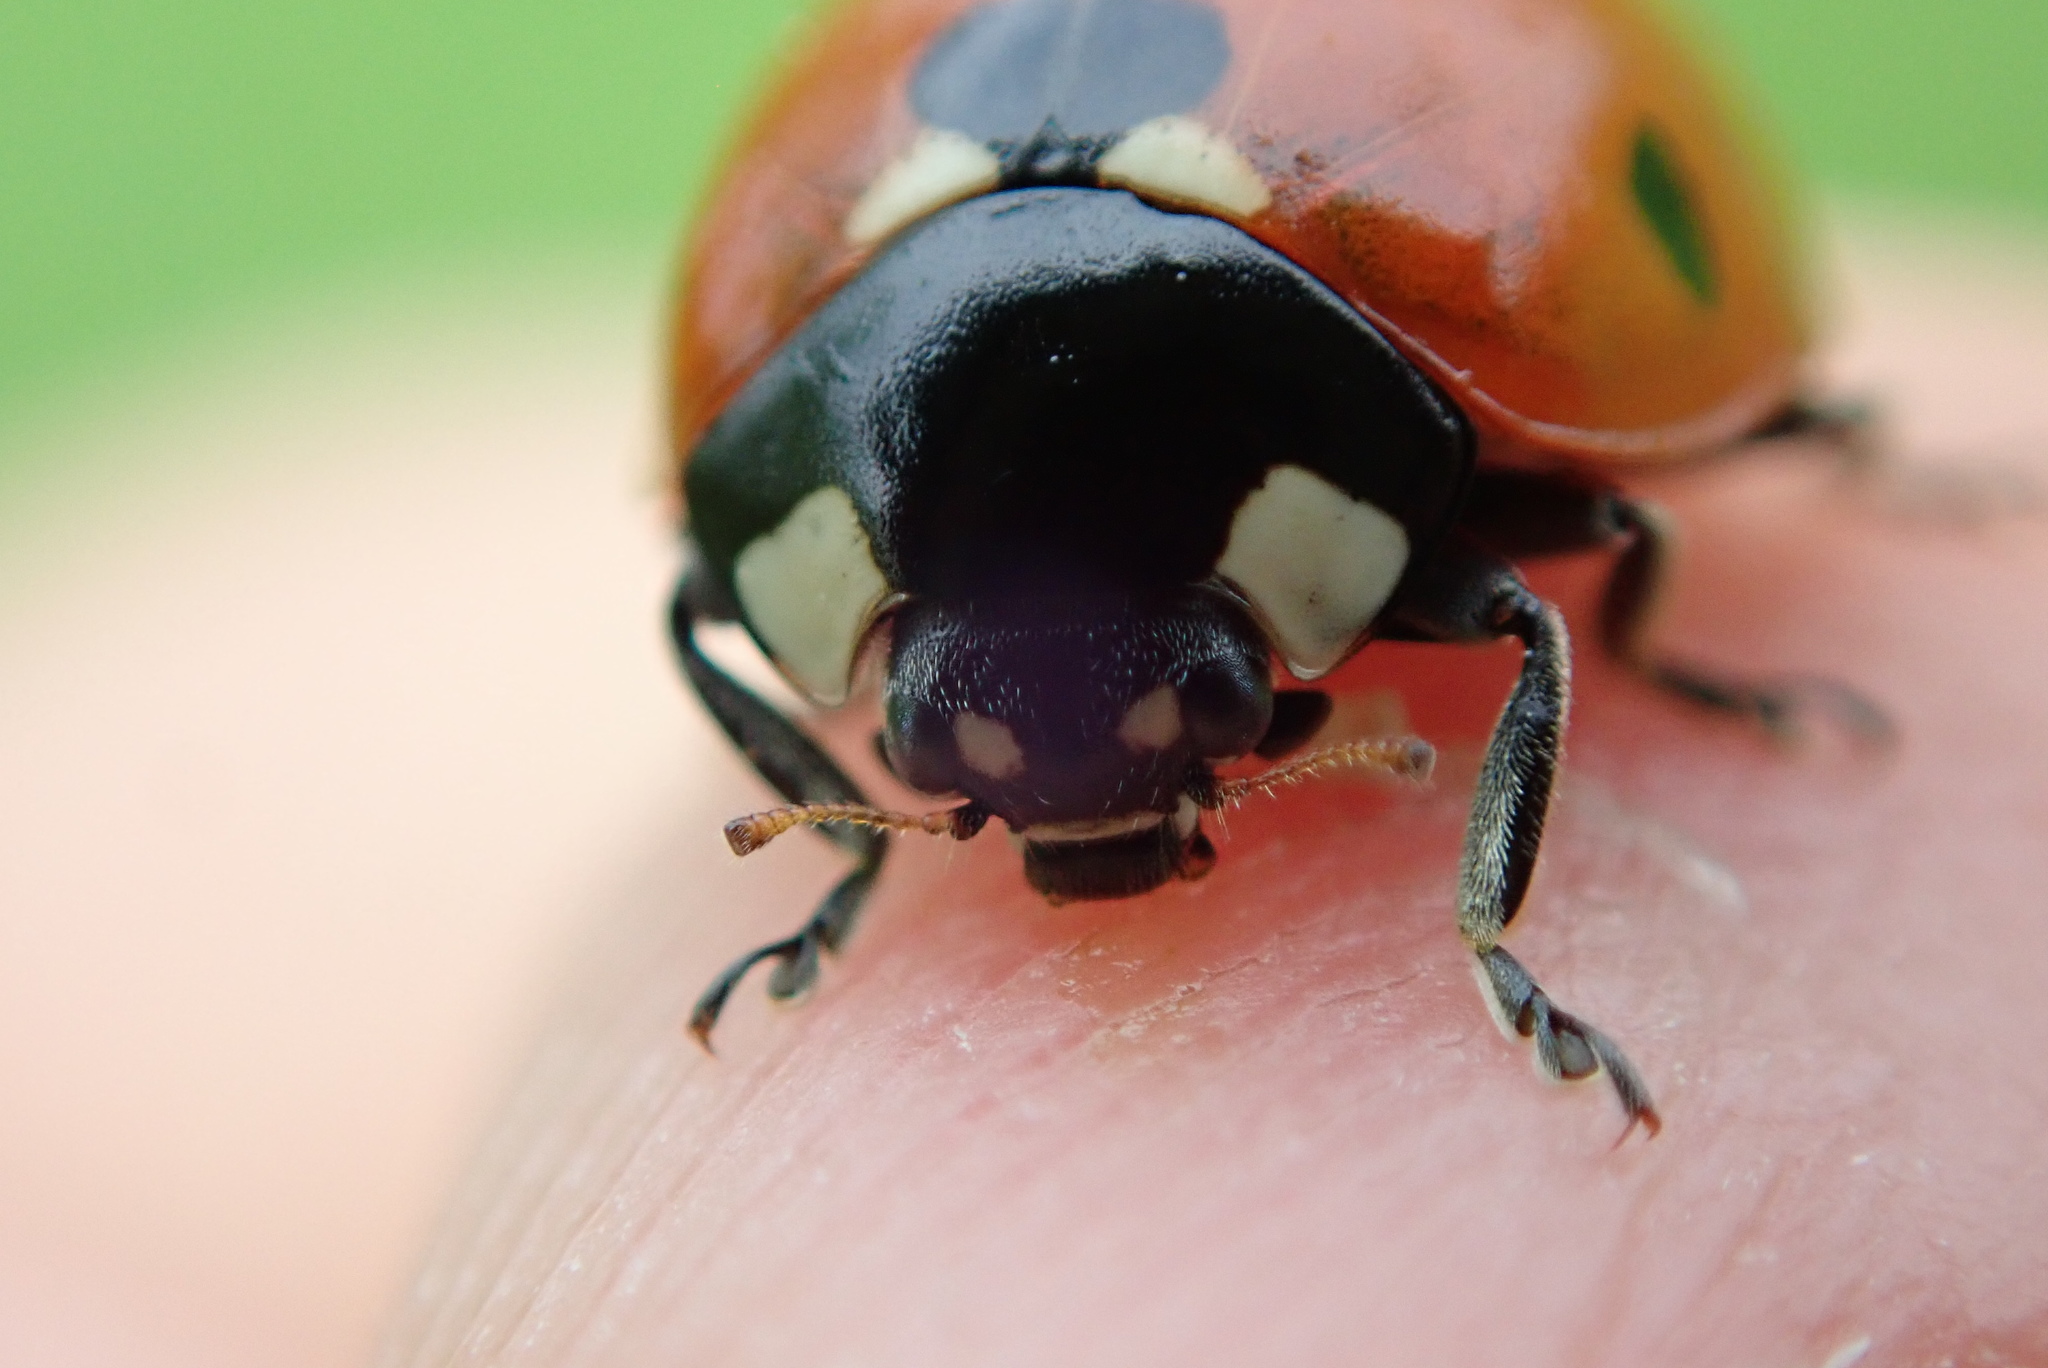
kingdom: Animalia
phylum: Arthropoda
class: Insecta
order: Coleoptera
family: Coccinellidae
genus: Coccinella
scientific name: Coccinella septempunctata
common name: Sevenspotted lady beetle
